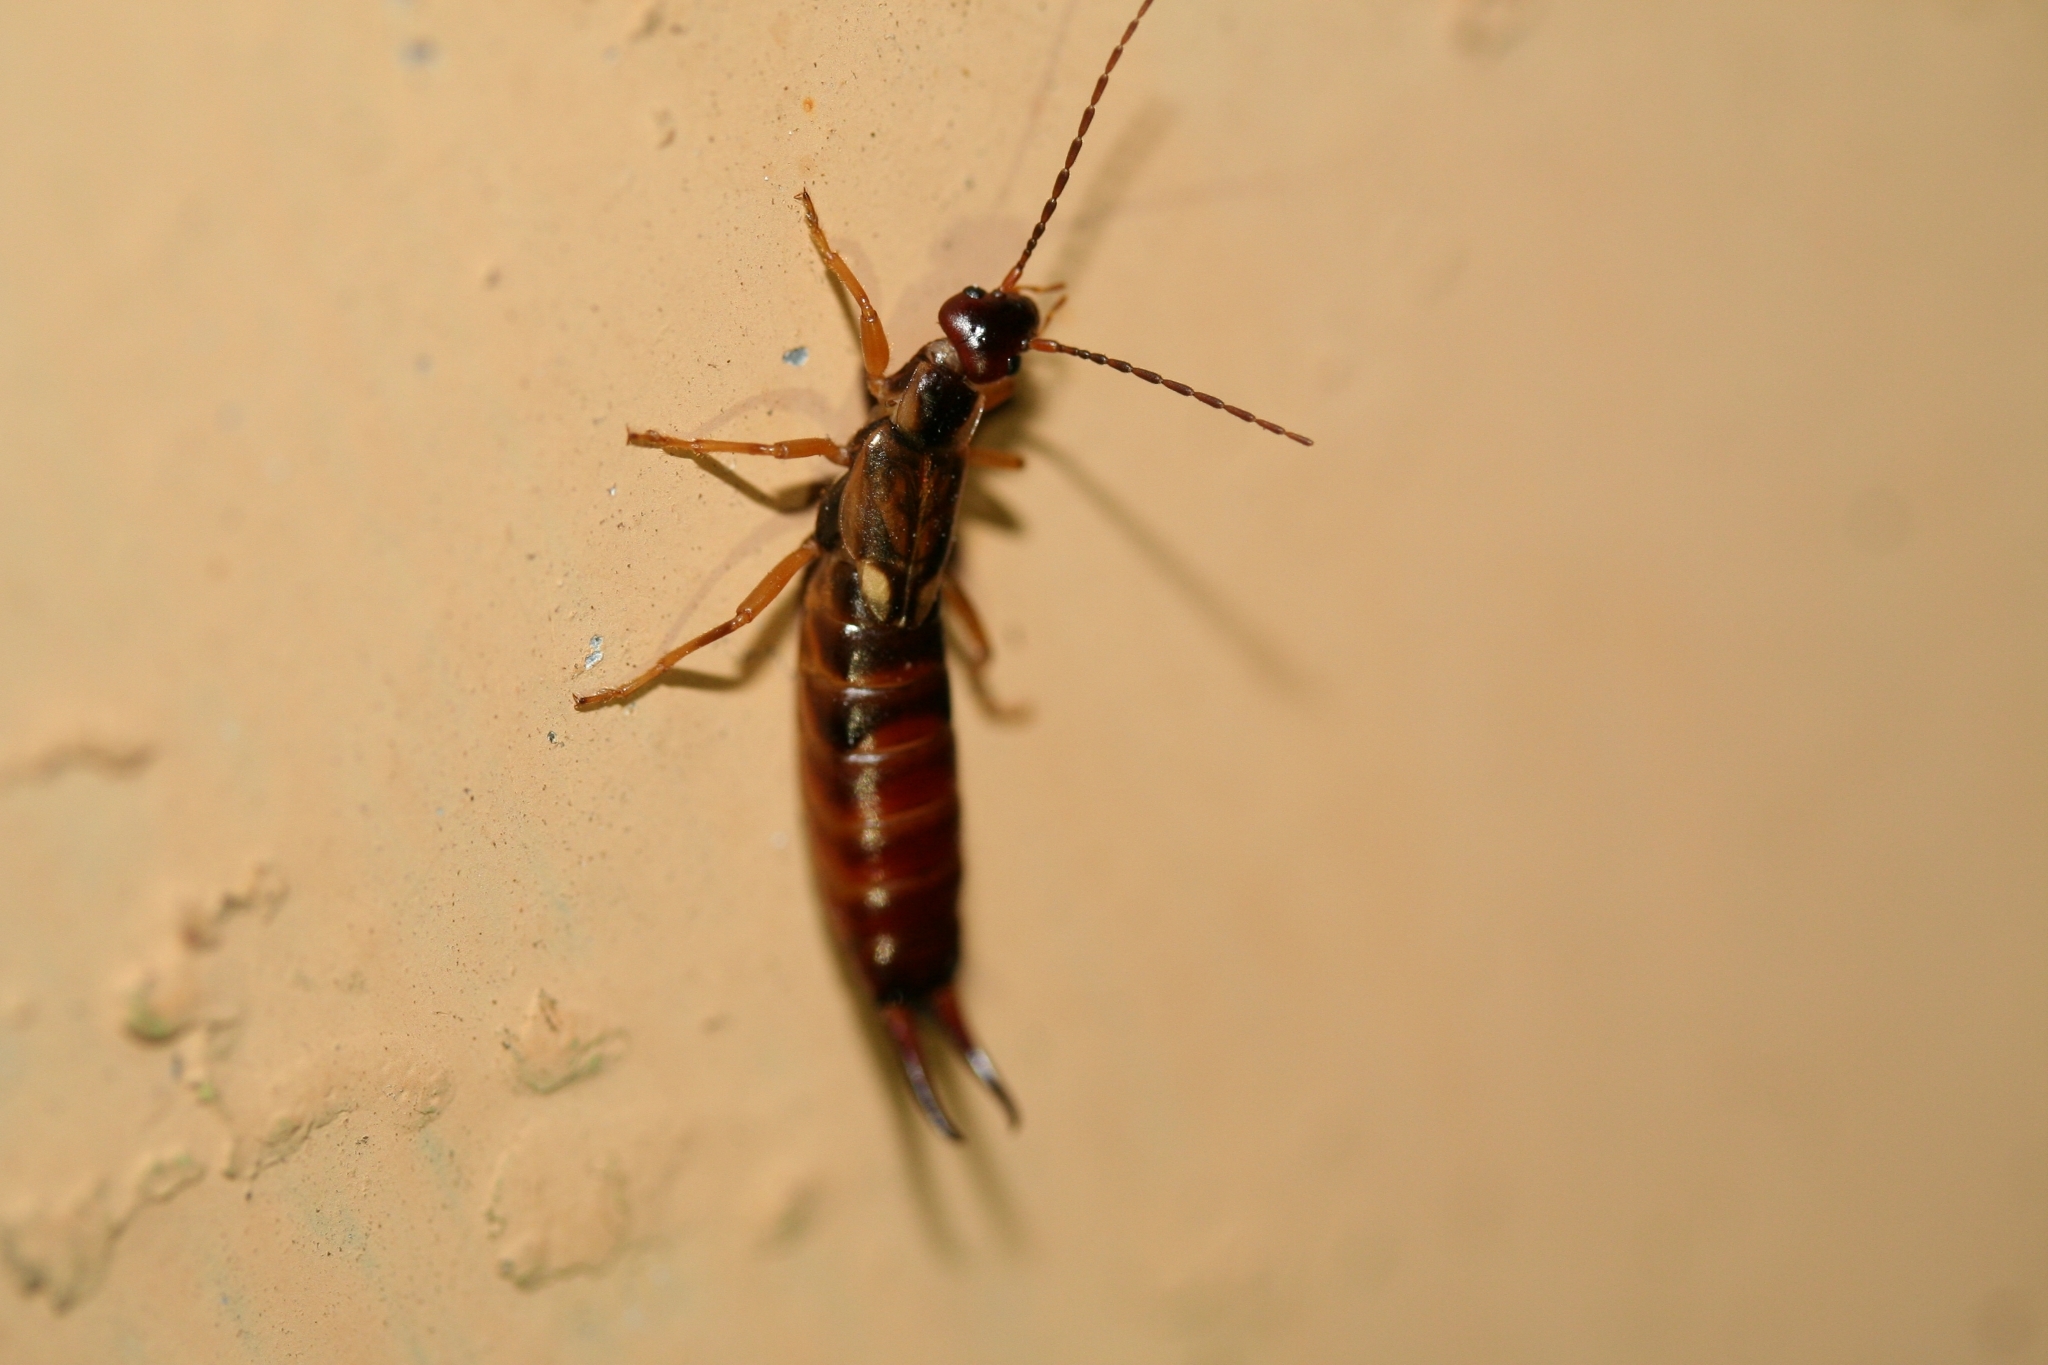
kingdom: Animalia
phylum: Arthropoda
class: Insecta
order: Dermaptera
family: Forficulidae
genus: Forficula
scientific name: Forficula
